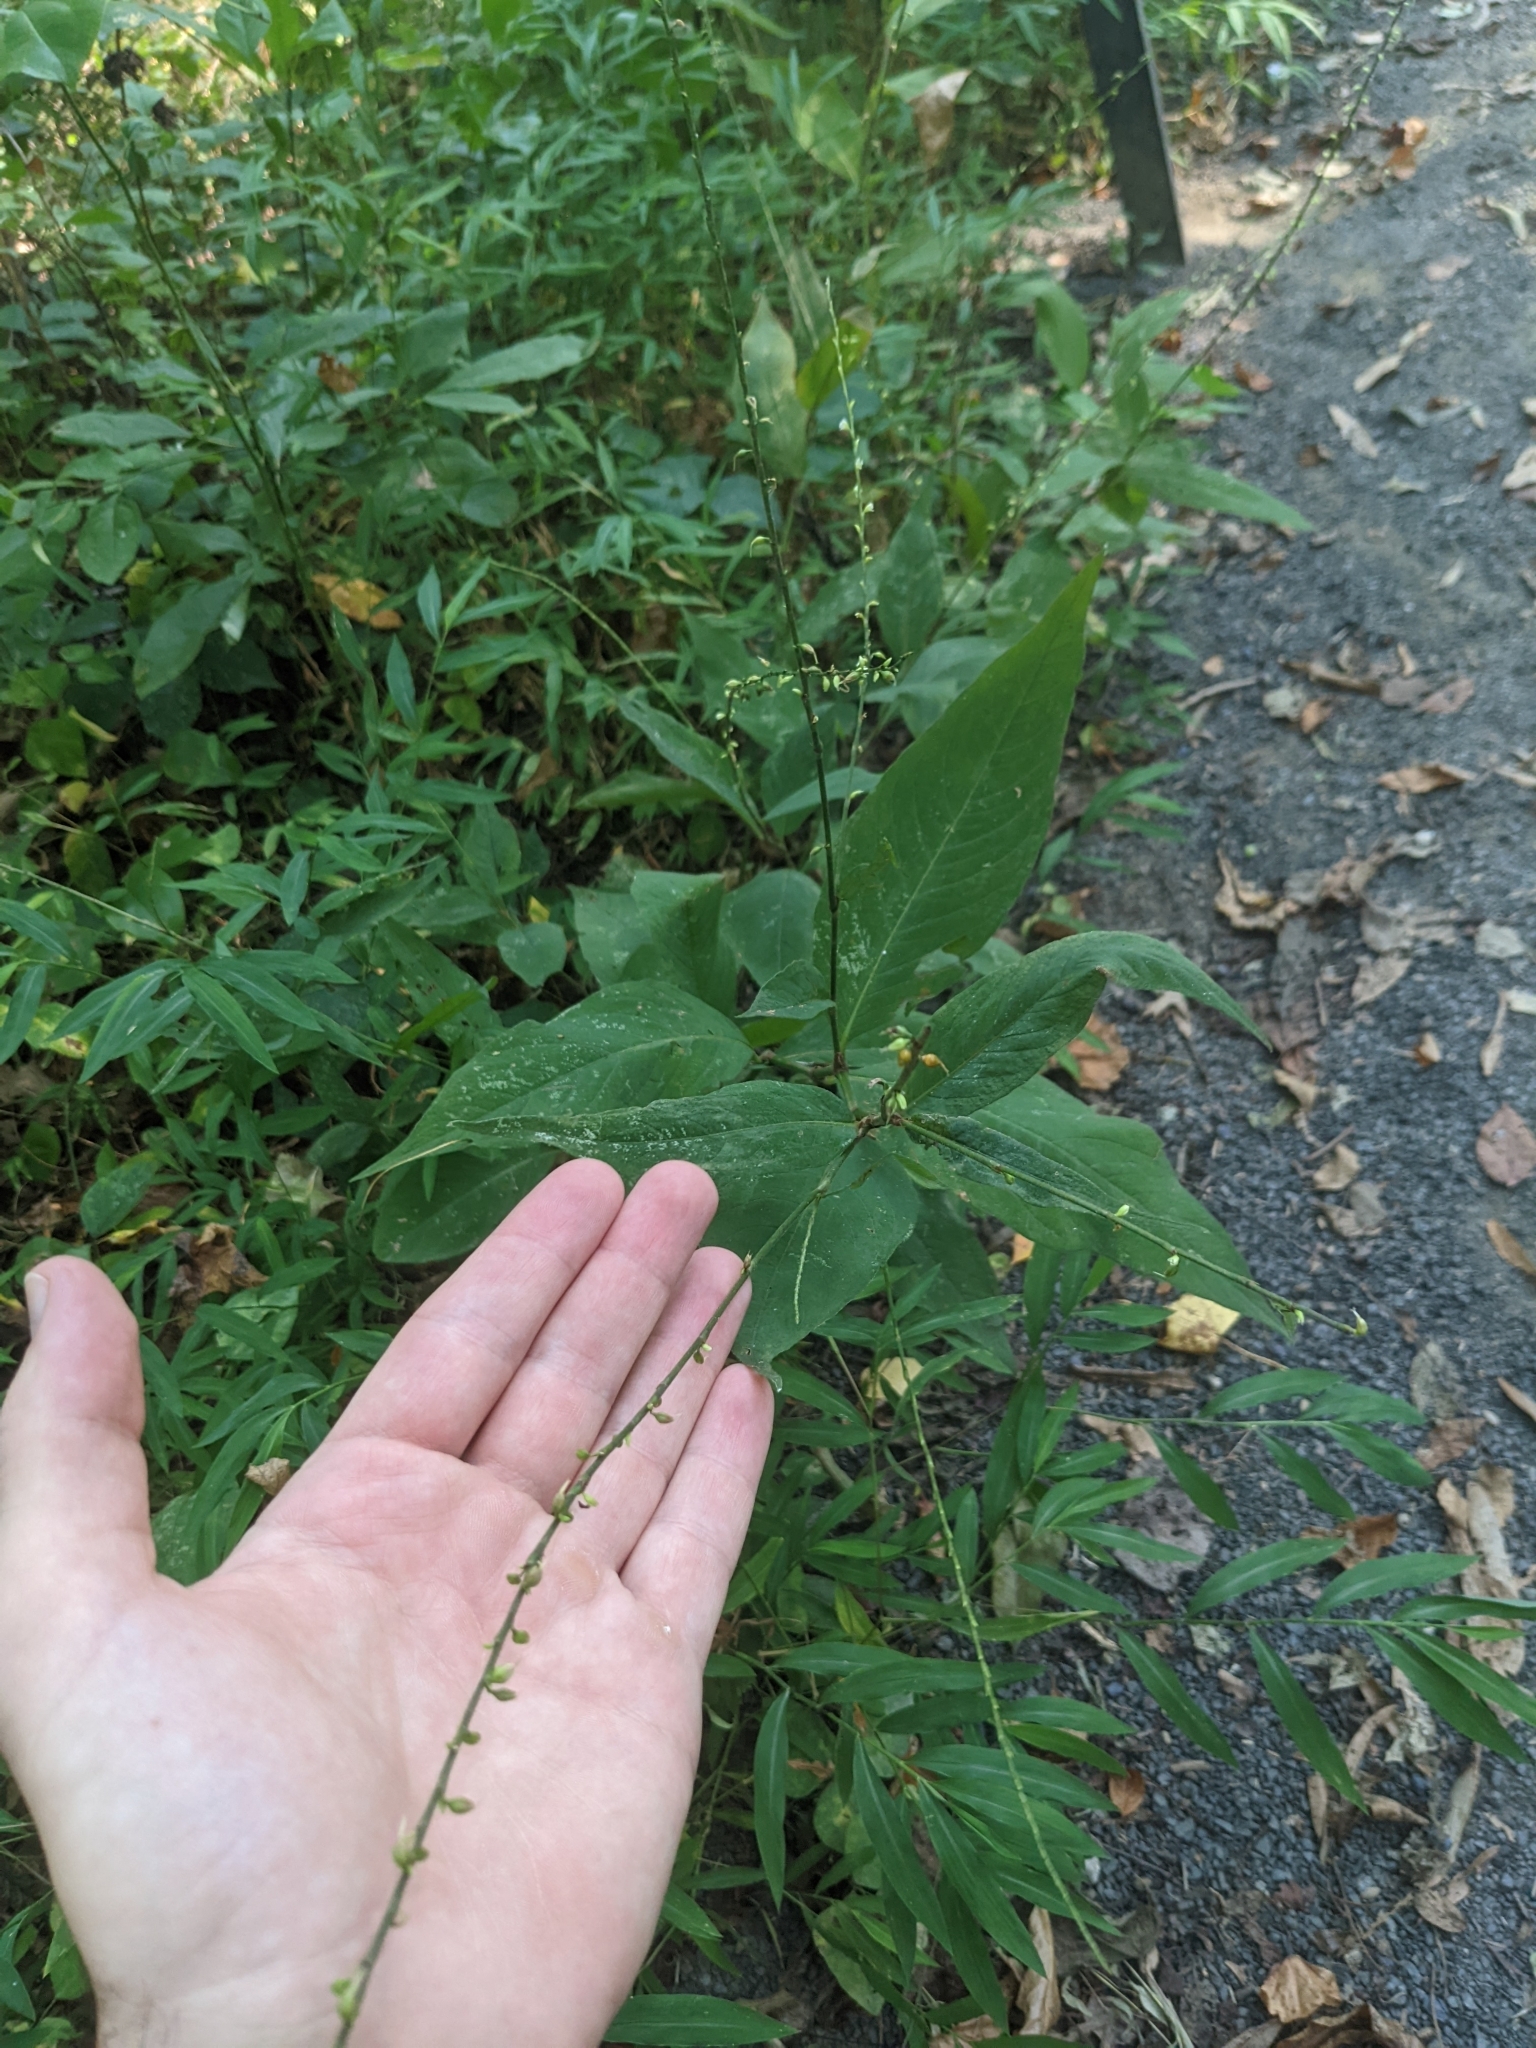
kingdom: Plantae
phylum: Tracheophyta
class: Magnoliopsida
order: Caryophyllales
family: Polygonaceae
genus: Persicaria
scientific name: Persicaria virginiana
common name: Jumpseed
